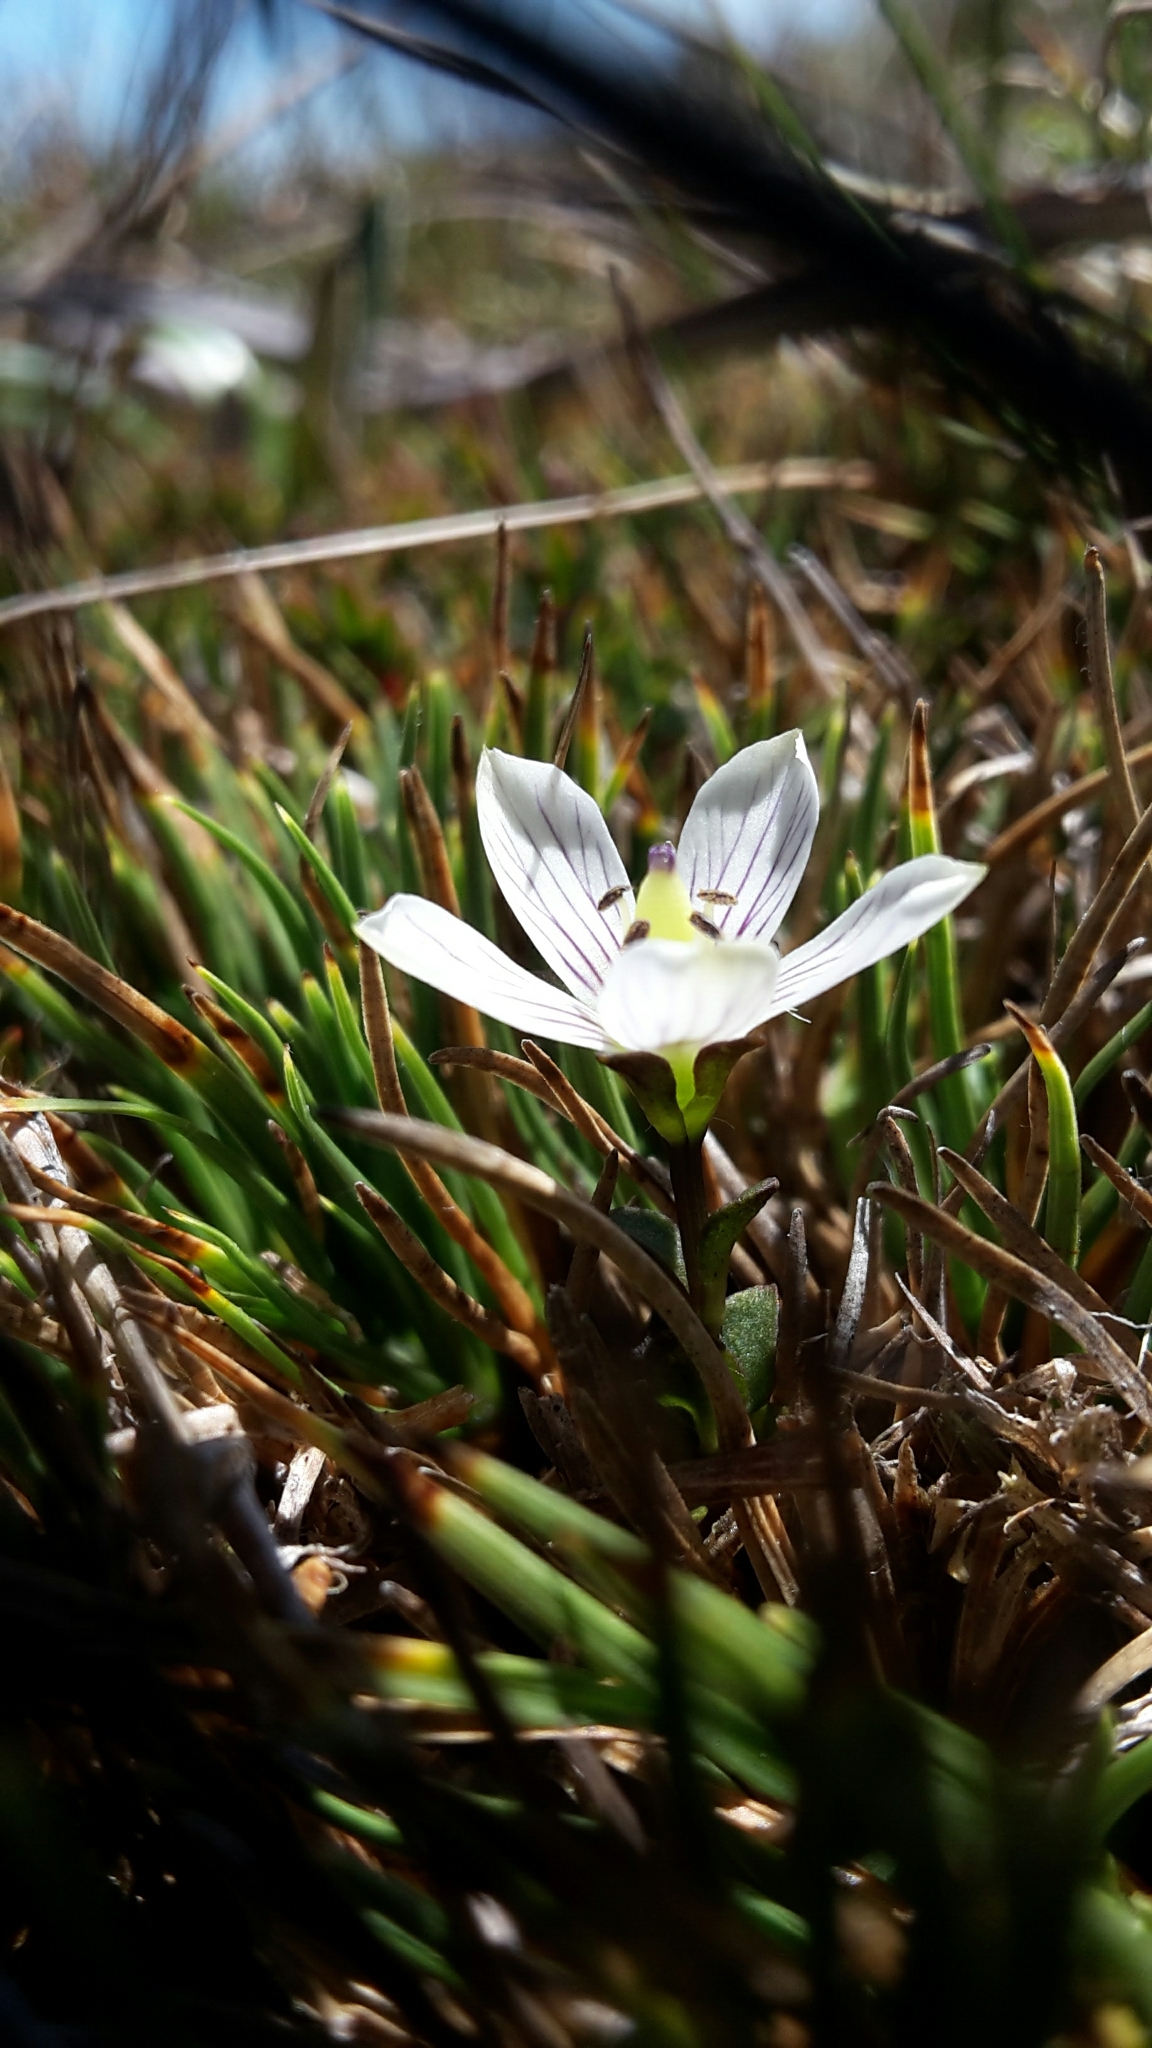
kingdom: Plantae
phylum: Tracheophyta
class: Magnoliopsida
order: Gentianales
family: Gentianaceae
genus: Gentianella
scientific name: Gentianella montana
